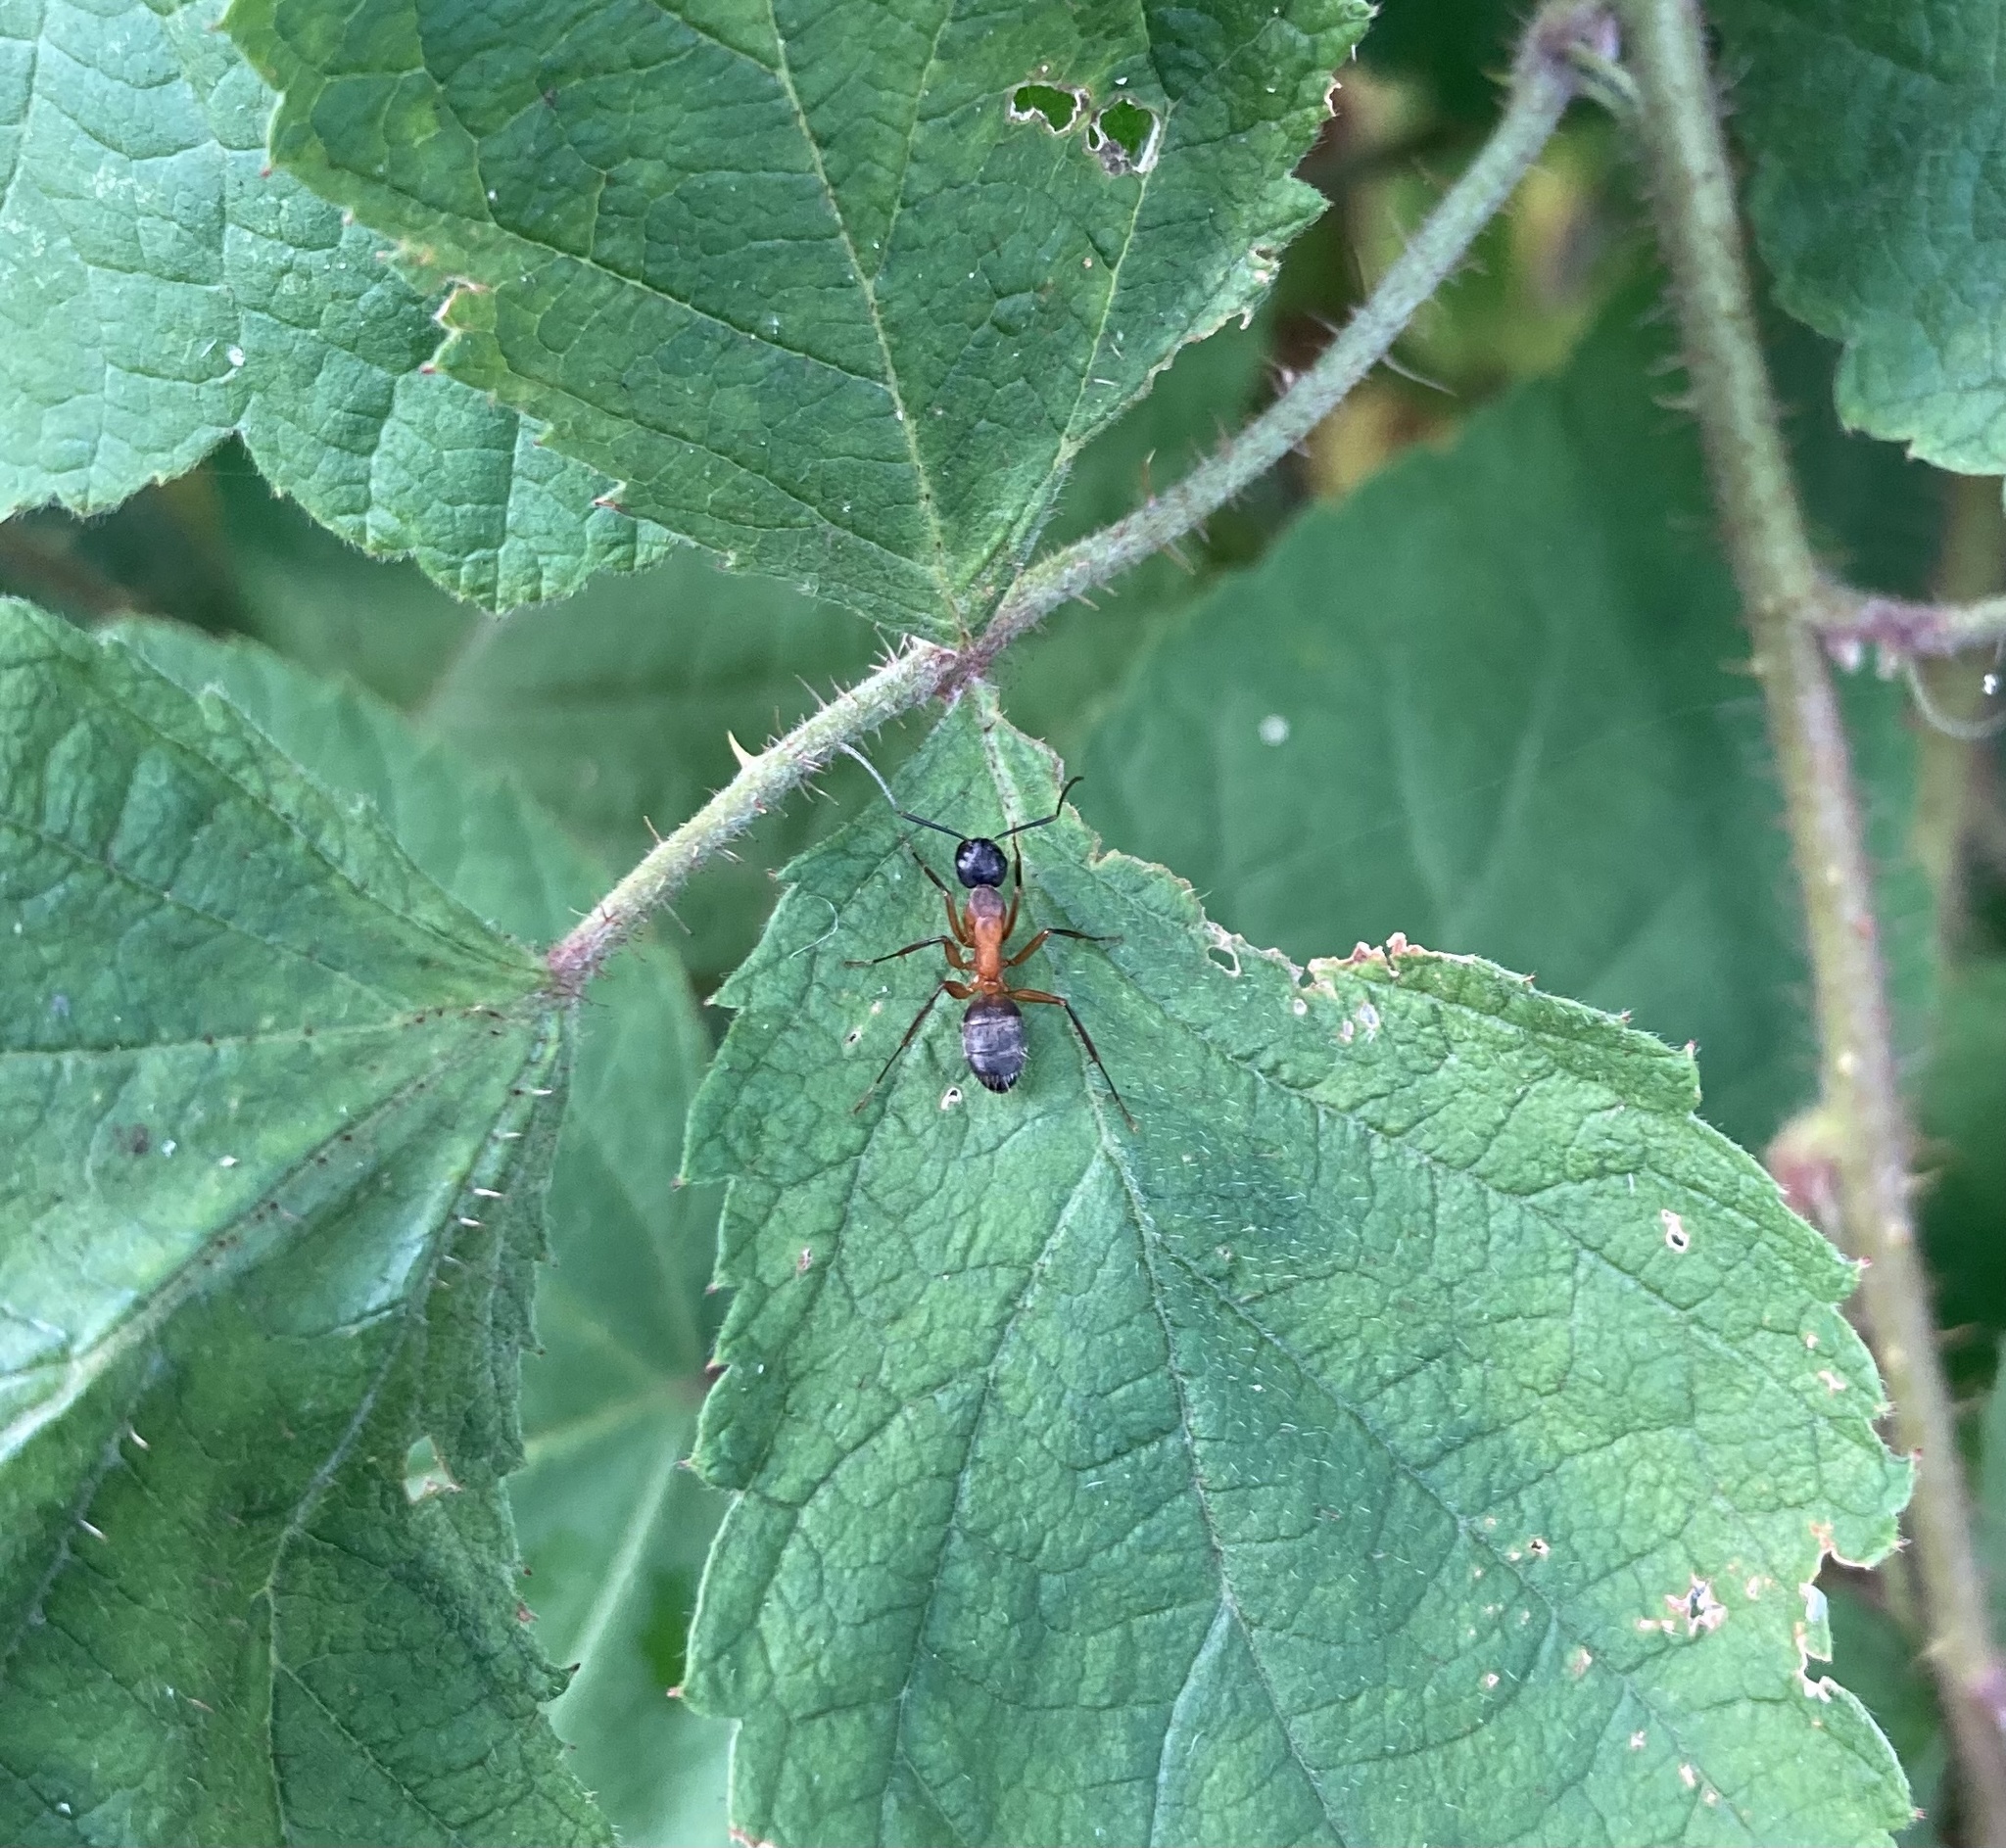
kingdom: Animalia
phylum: Arthropoda
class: Insecta
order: Hymenoptera
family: Formicidae
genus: Camponotus
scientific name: Camponotus chromaiodes
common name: Red carpenter ant
